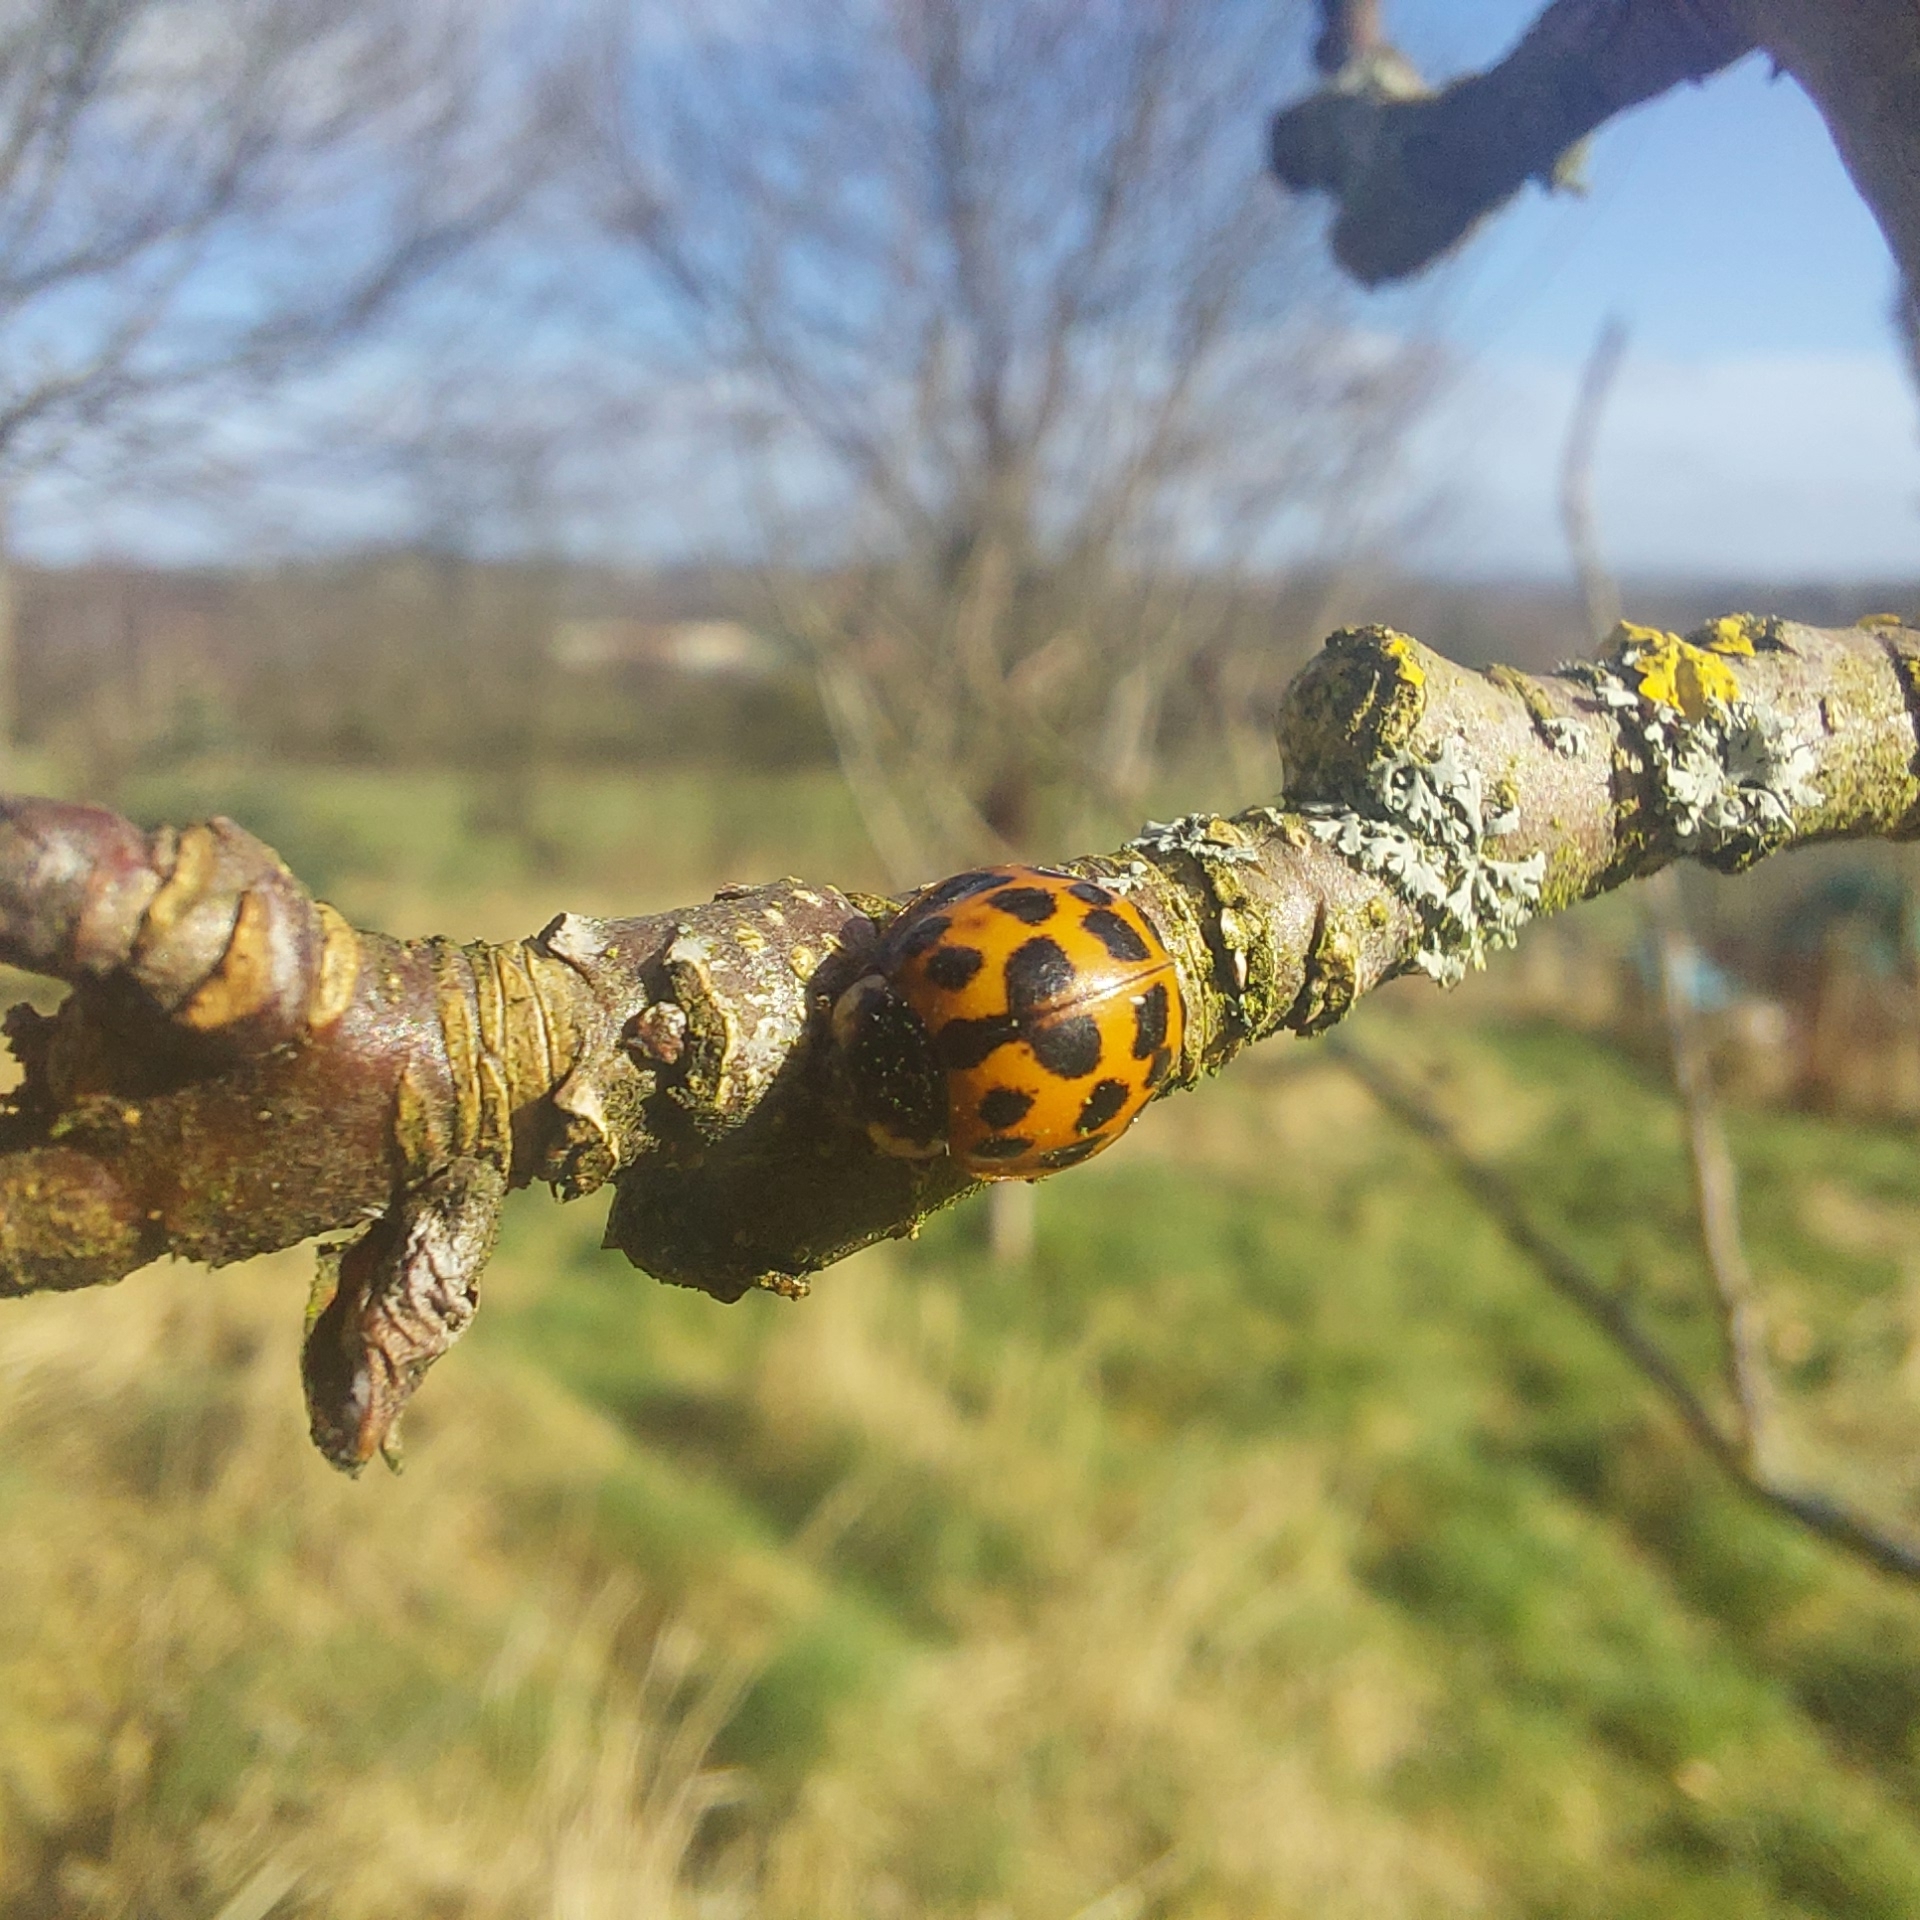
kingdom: Animalia
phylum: Arthropoda
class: Insecta
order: Coleoptera
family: Coccinellidae
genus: Harmonia
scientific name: Harmonia axyridis
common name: Harlequin ladybird
